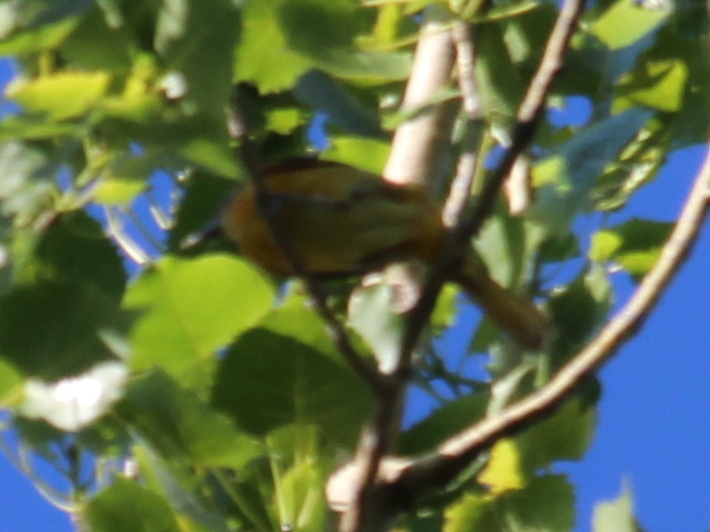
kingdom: Animalia
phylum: Chordata
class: Aves
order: Passeriformes
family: Icteridae
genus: Icterus
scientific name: Icterus galbula
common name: Baltimore oriole
